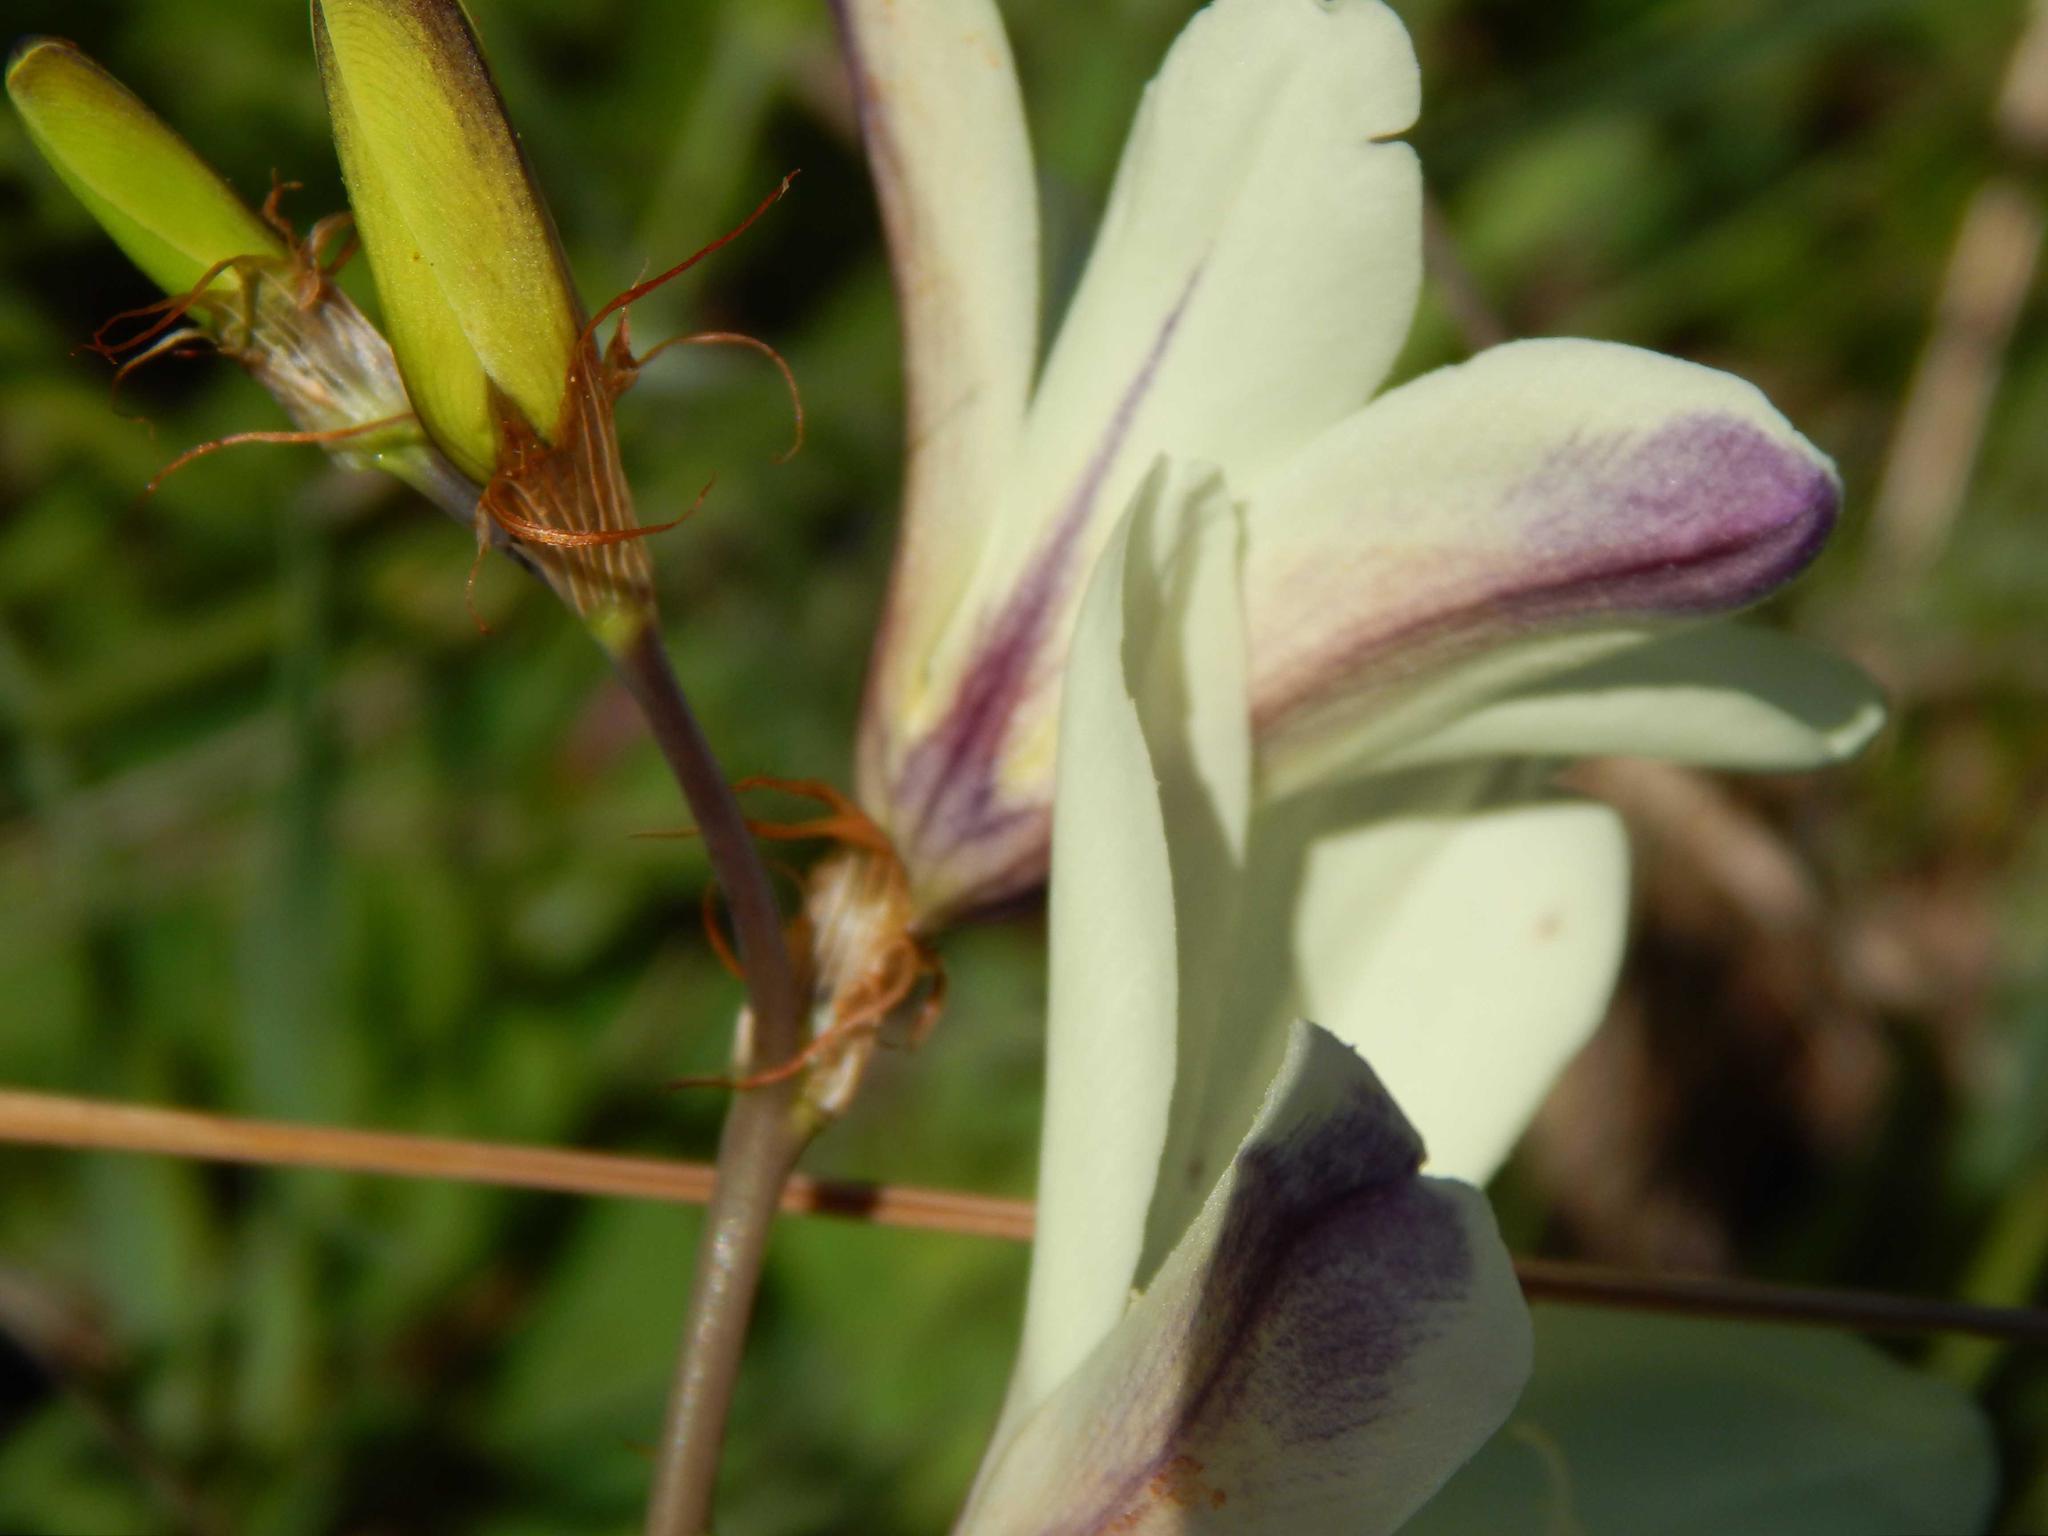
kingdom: Plantae
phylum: Tracheophyta
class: Liliopsida
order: Asparagales
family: Iridaceae
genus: Sparaxis
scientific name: Sparaxis grandiflora
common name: Plain harlequin-flower
